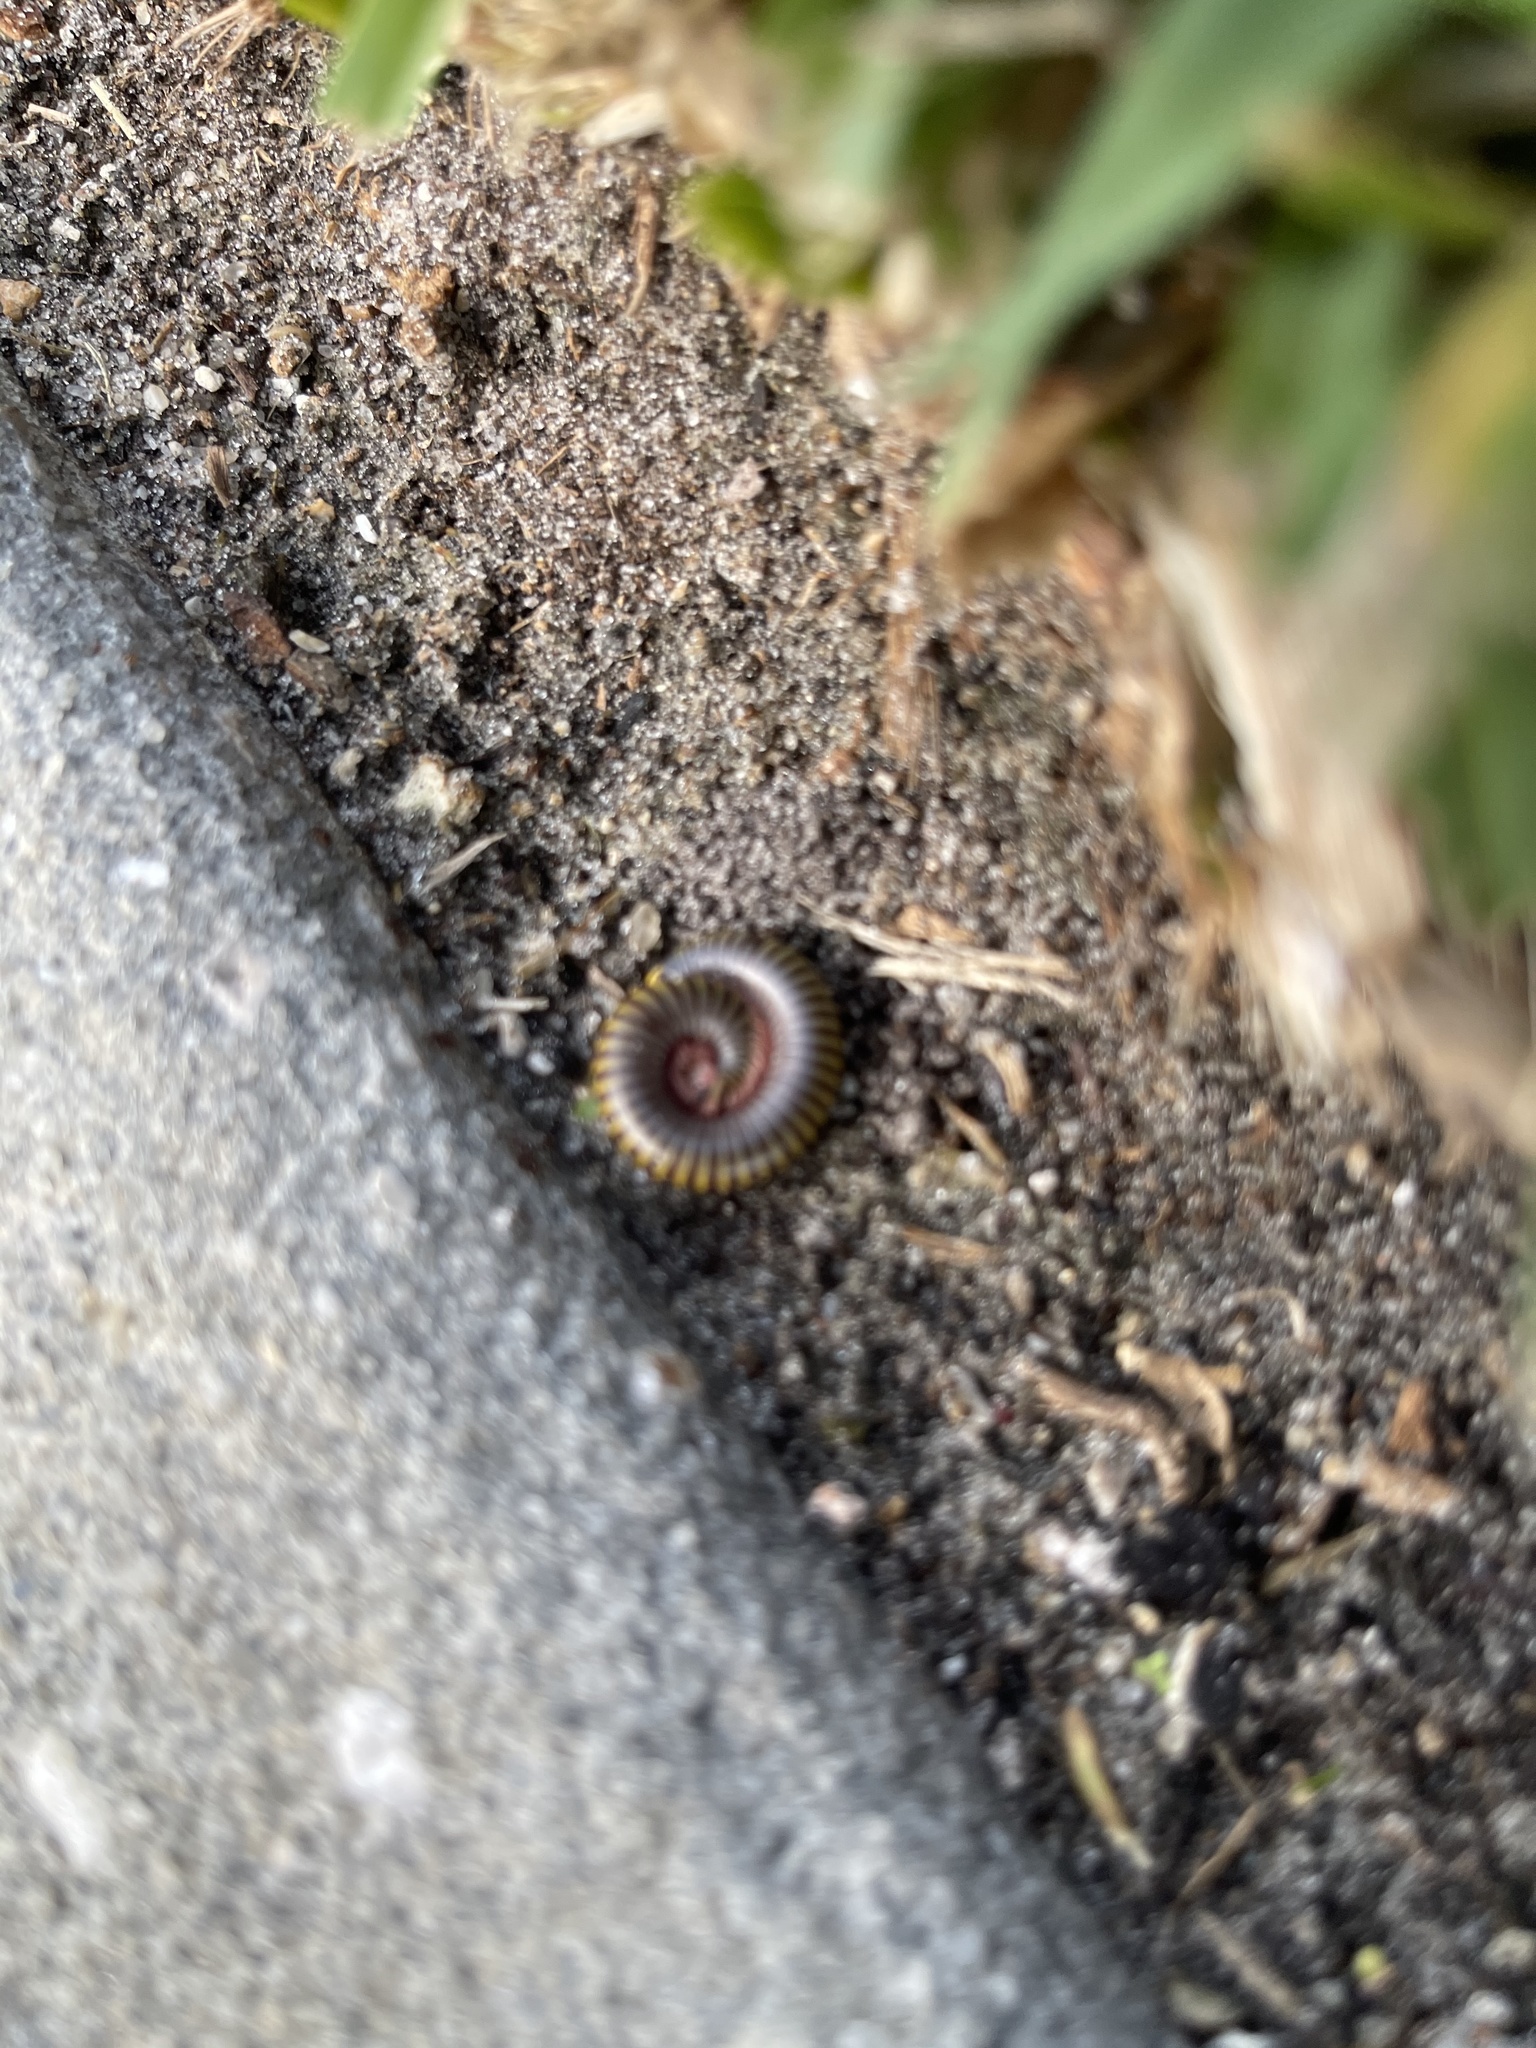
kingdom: Animalia
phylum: Arthropoda
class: Diplopoda
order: Spirobolida
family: Rhinocricidae
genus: Anadenobolus
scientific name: Anadenobolus monilicornis
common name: Caribbean millipede
